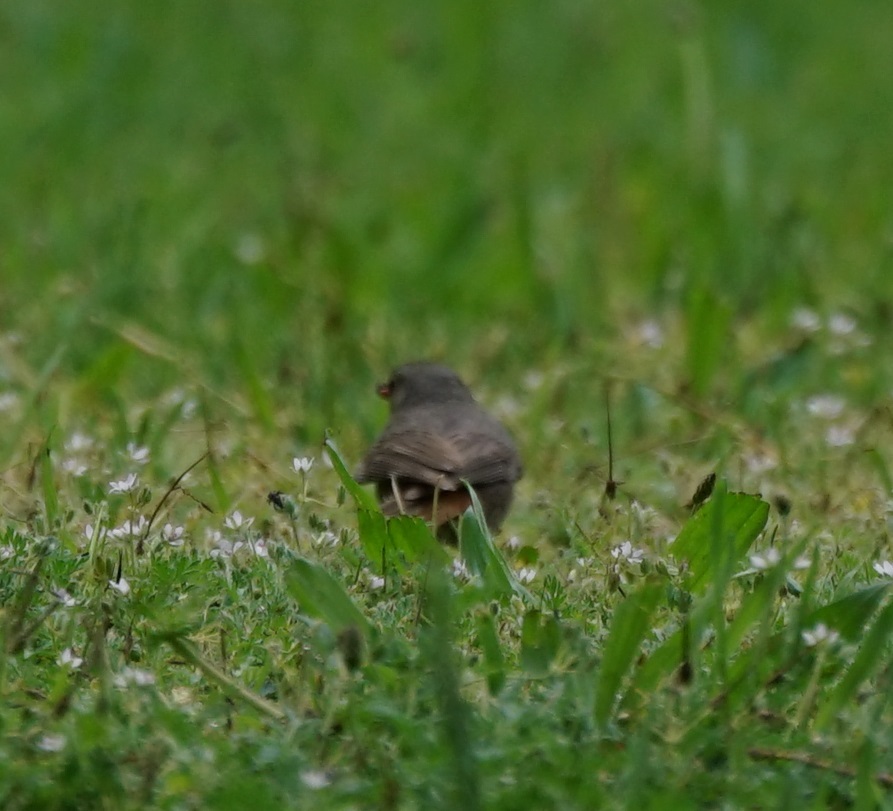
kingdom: Animalia
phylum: Chordata
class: Aves
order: Passeriformes
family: Muscicapidae
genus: Phoenicurus
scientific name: Phoenicurus ochruros
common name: Black redstart
